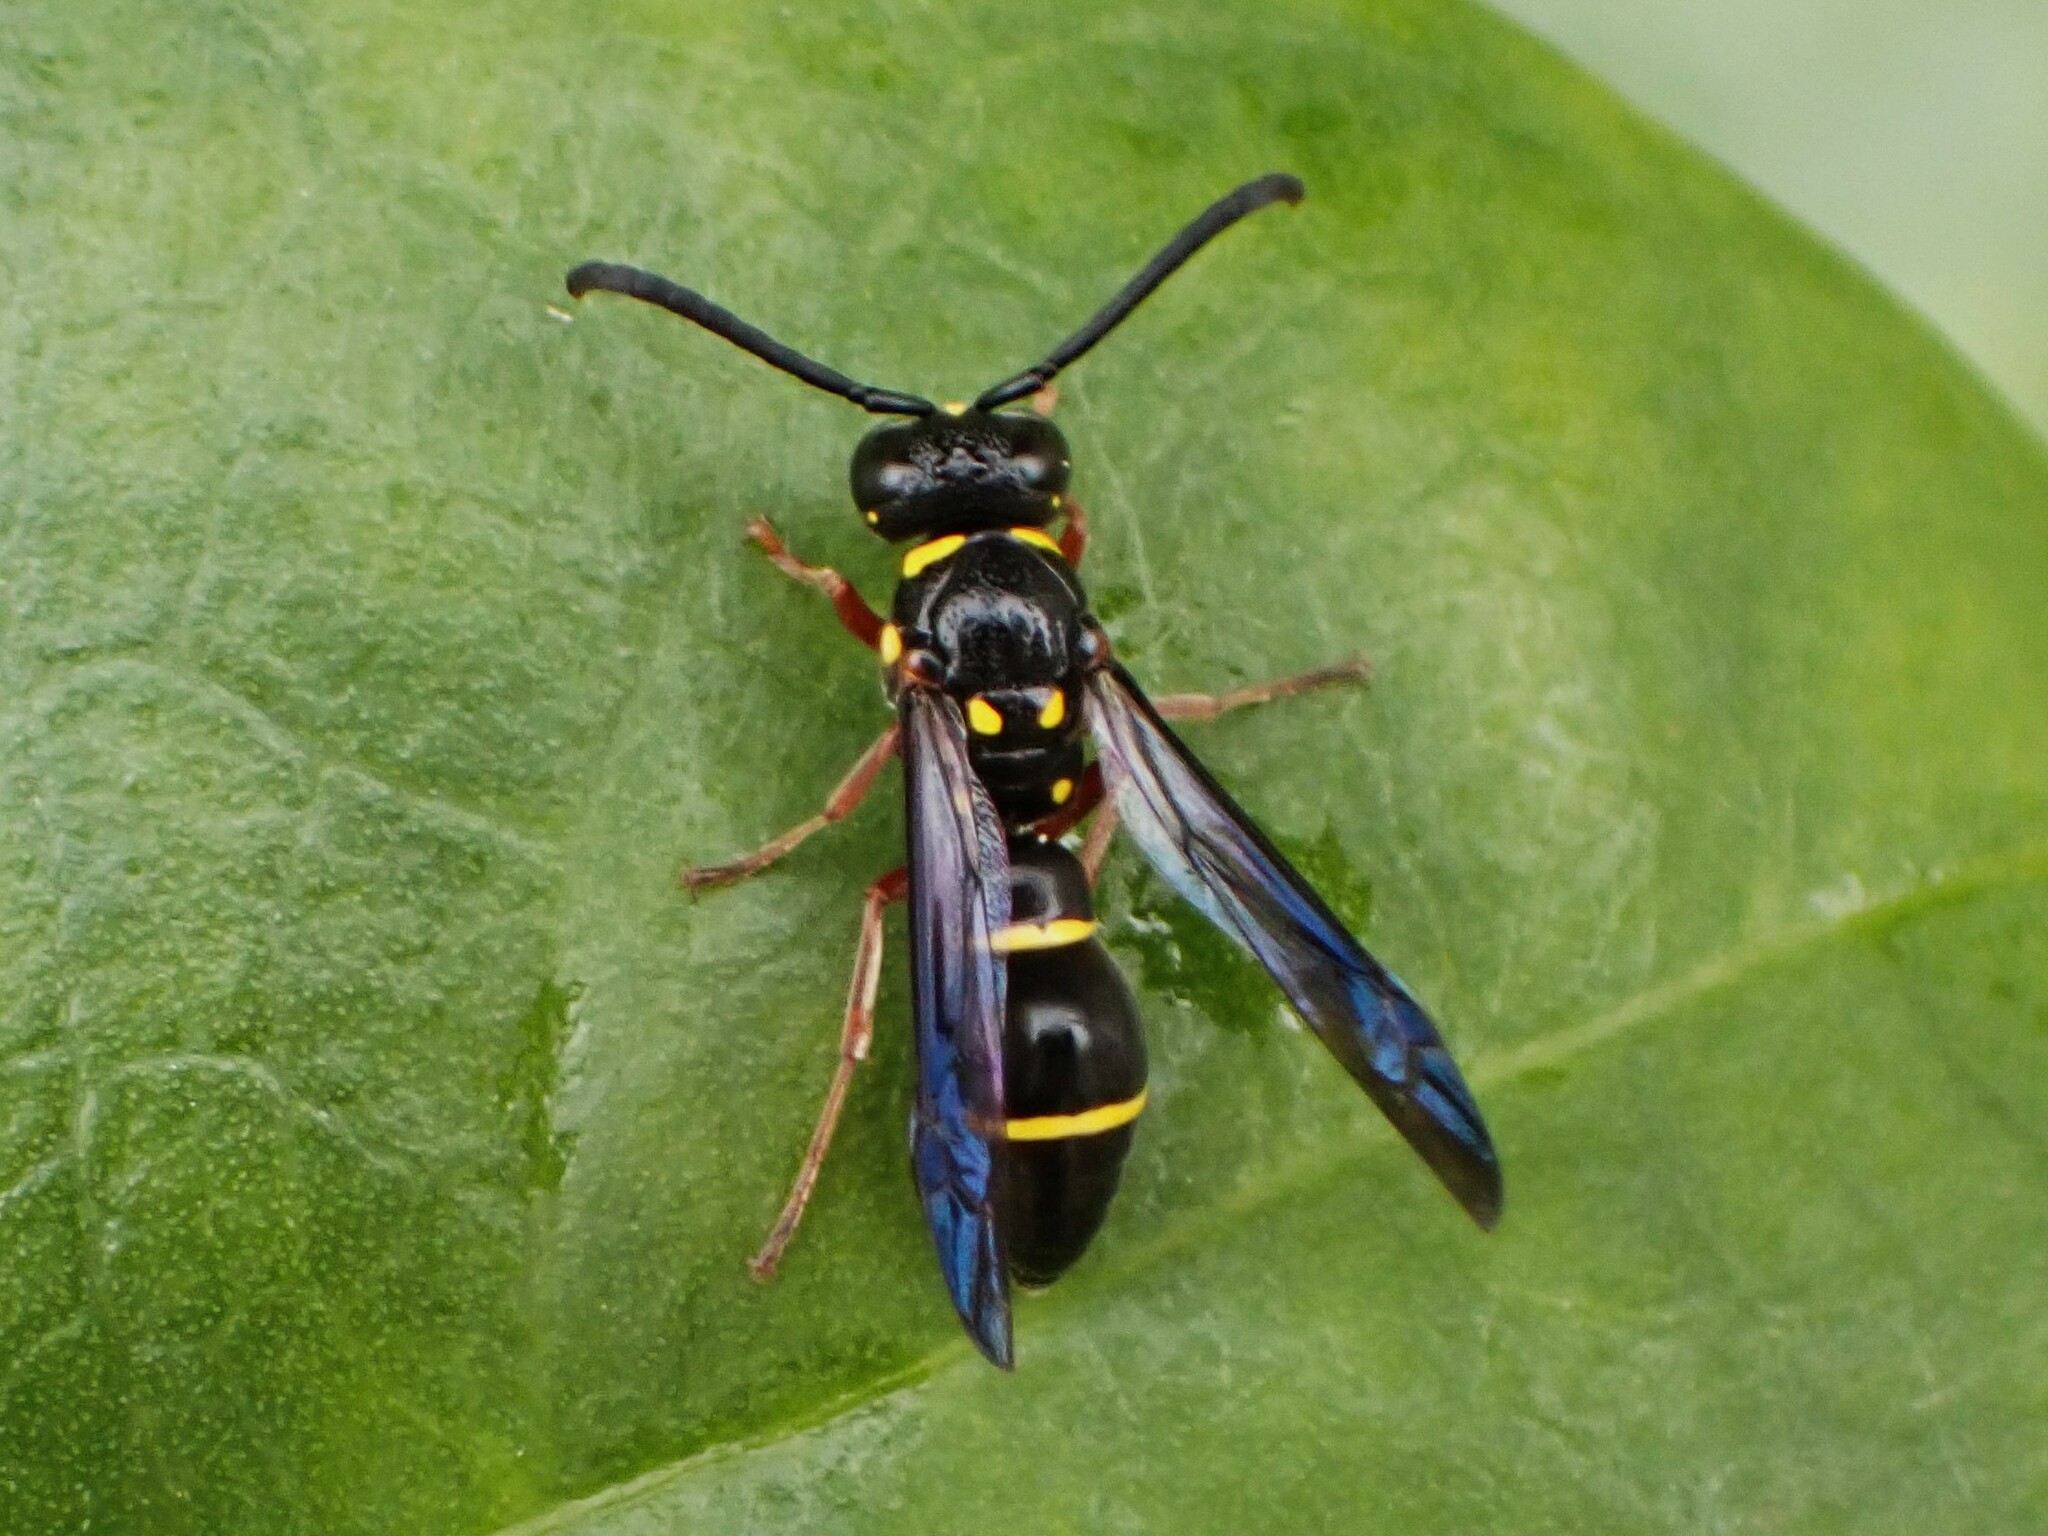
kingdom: Animalia
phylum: Arthropoda
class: Insecta
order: Hymenoptera
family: Eumenidae
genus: Parodynerus
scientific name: Parodynerus bicinctus
